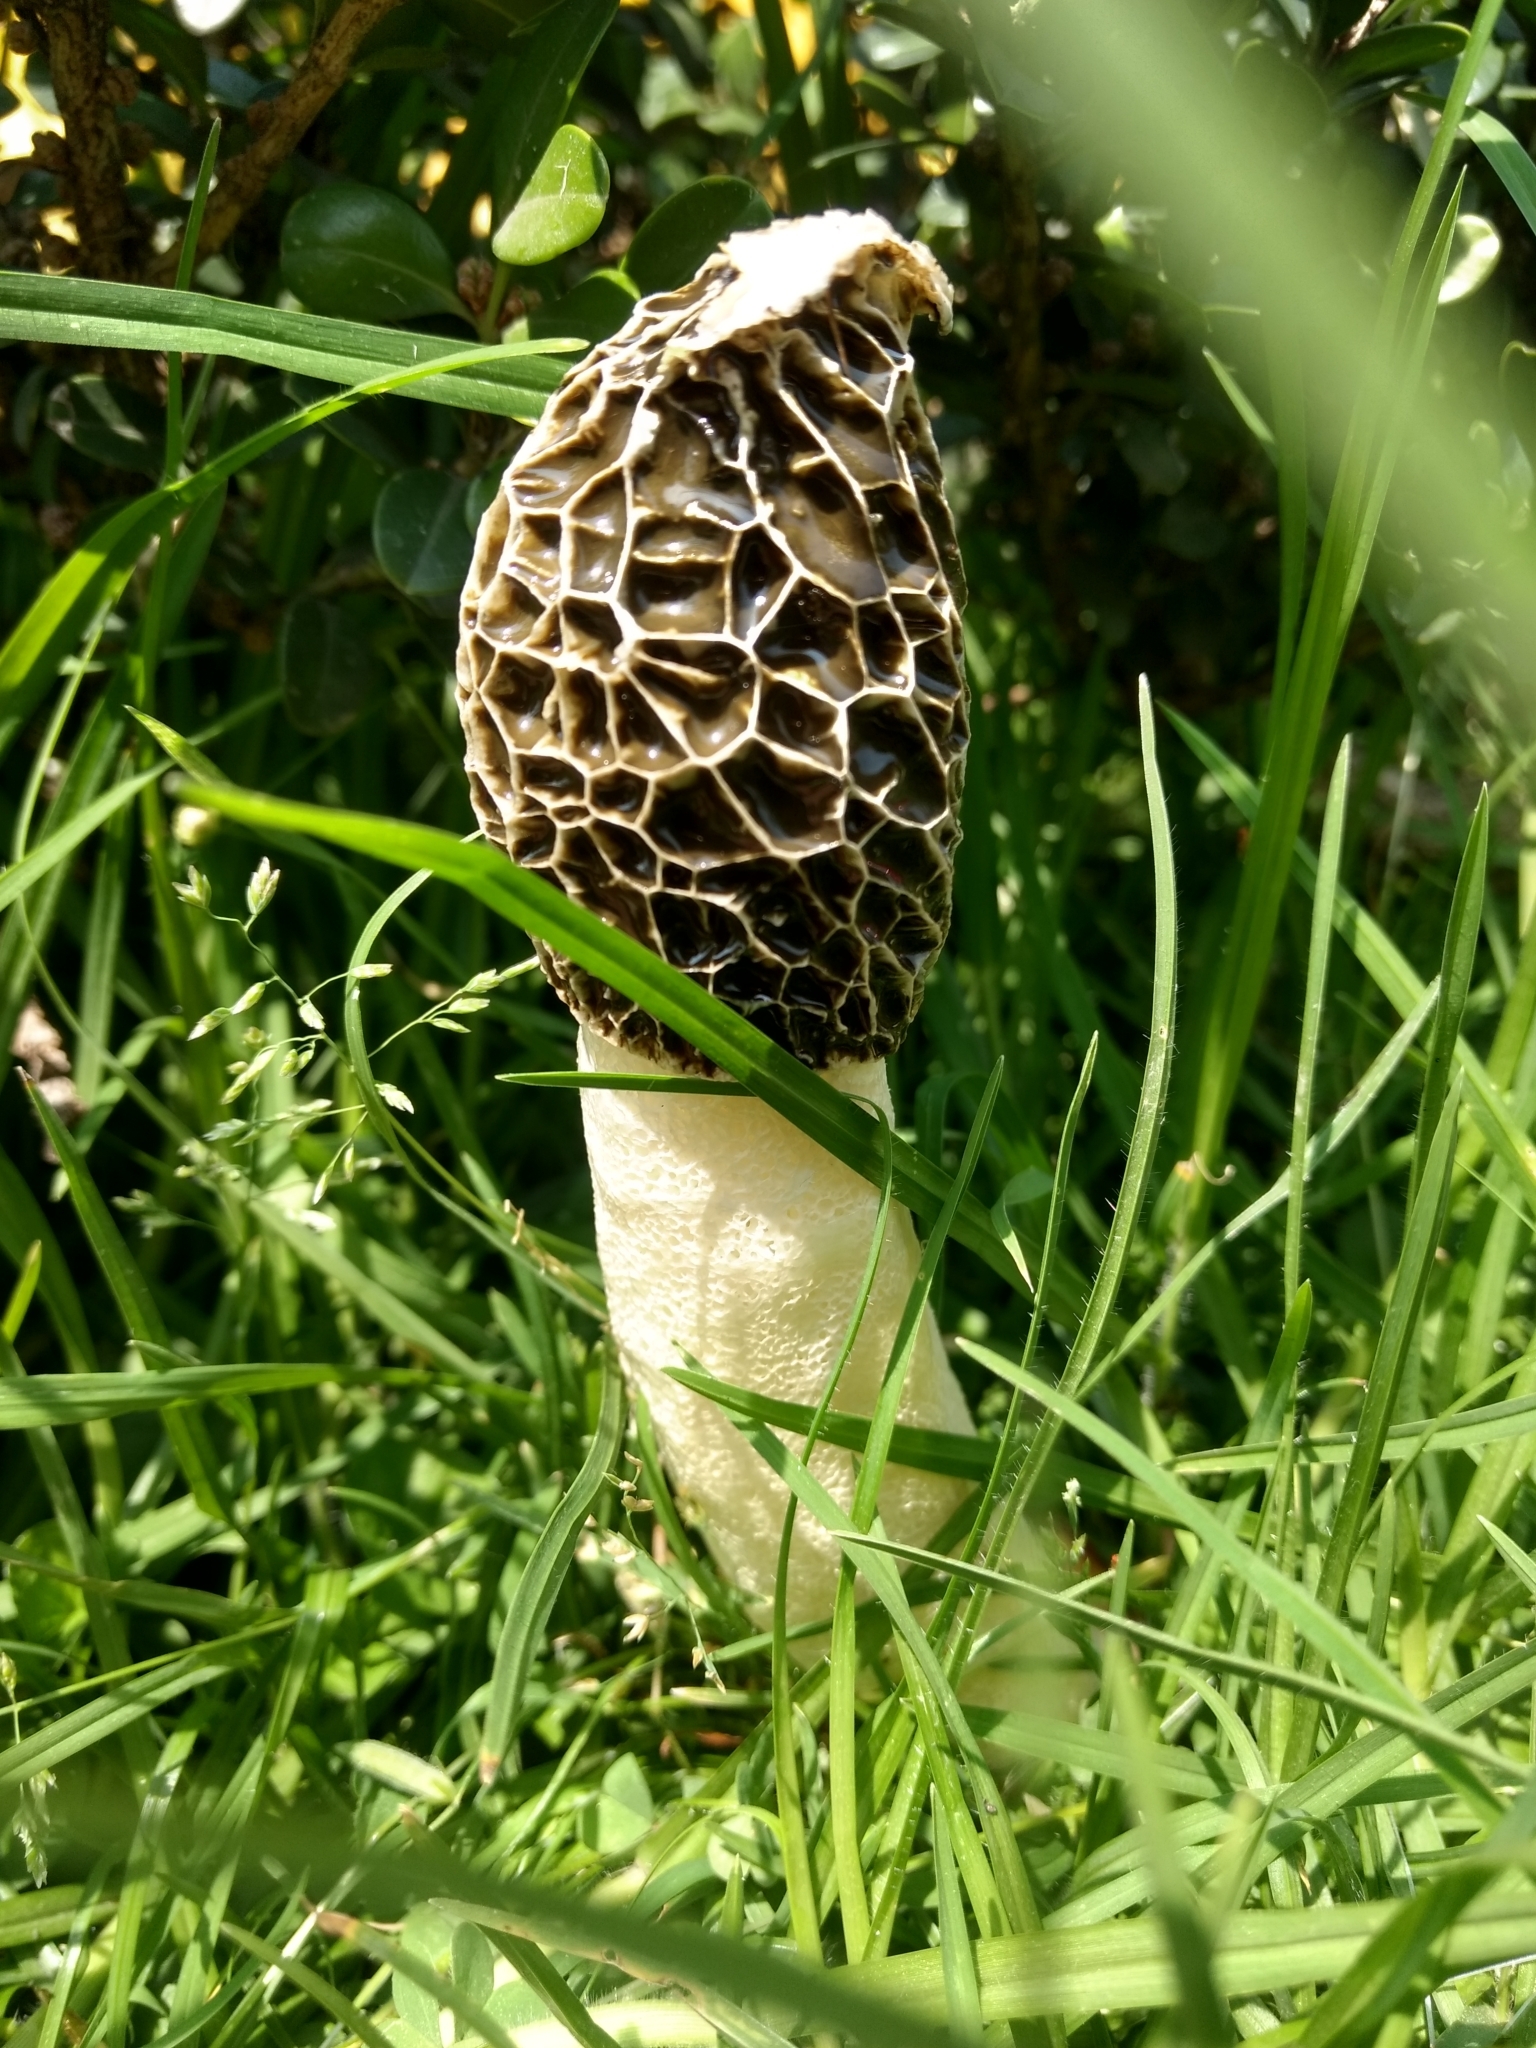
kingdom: Fungi
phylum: Basidiomycota
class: Agaricomycetes
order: Phallales
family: Phallaceae
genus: Phallus
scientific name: Phallus hadriani
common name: Sand stinkhorn
